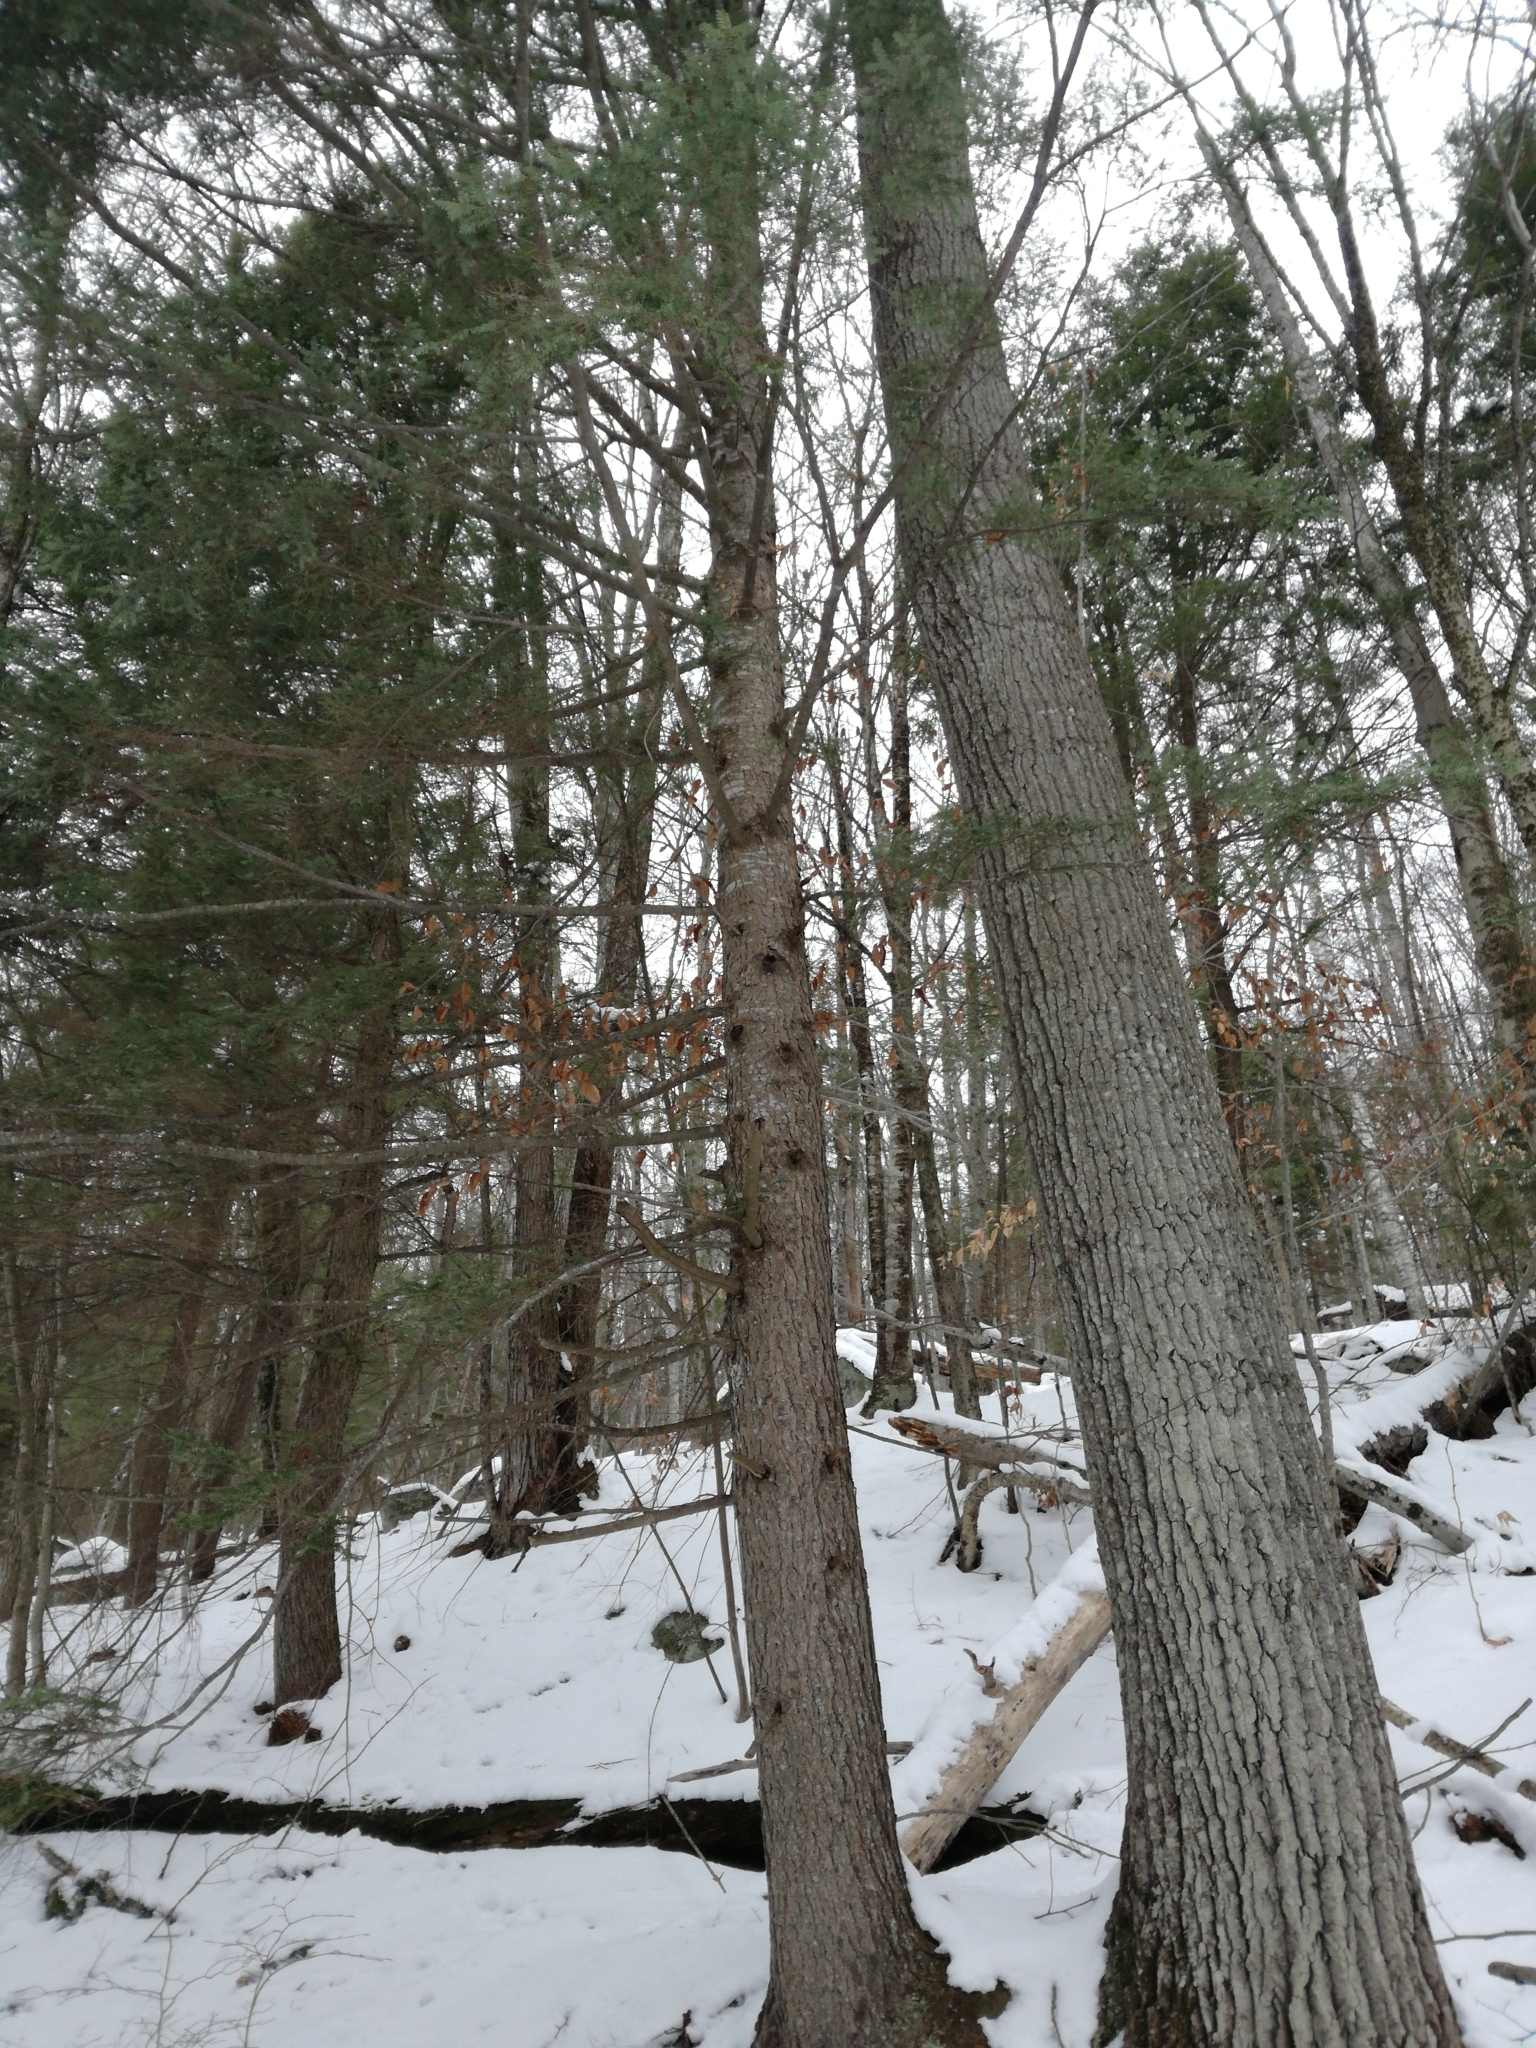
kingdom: Plantae
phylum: Tracheophyta
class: Pinopsida
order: Pinales
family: Pinaceae
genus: Tsuga
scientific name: Tsuga canadensis
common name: Eastern hemlock
